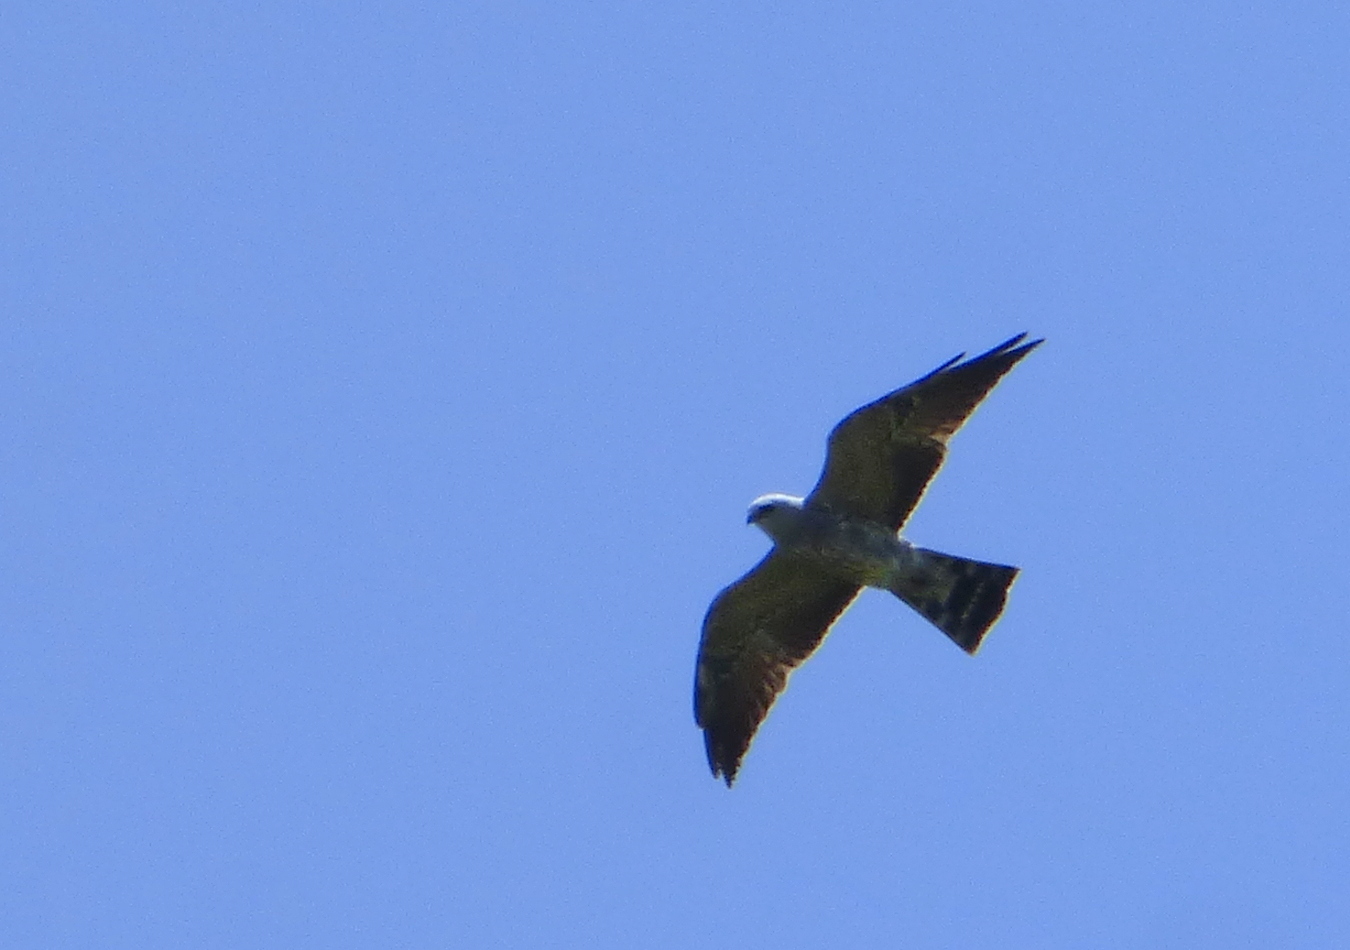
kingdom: Animalia
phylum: Chordata
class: Aves
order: Accipitriformes
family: Accipitridae
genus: Ictinia
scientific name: Ictinia mississippiensis
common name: Mississippi kite
